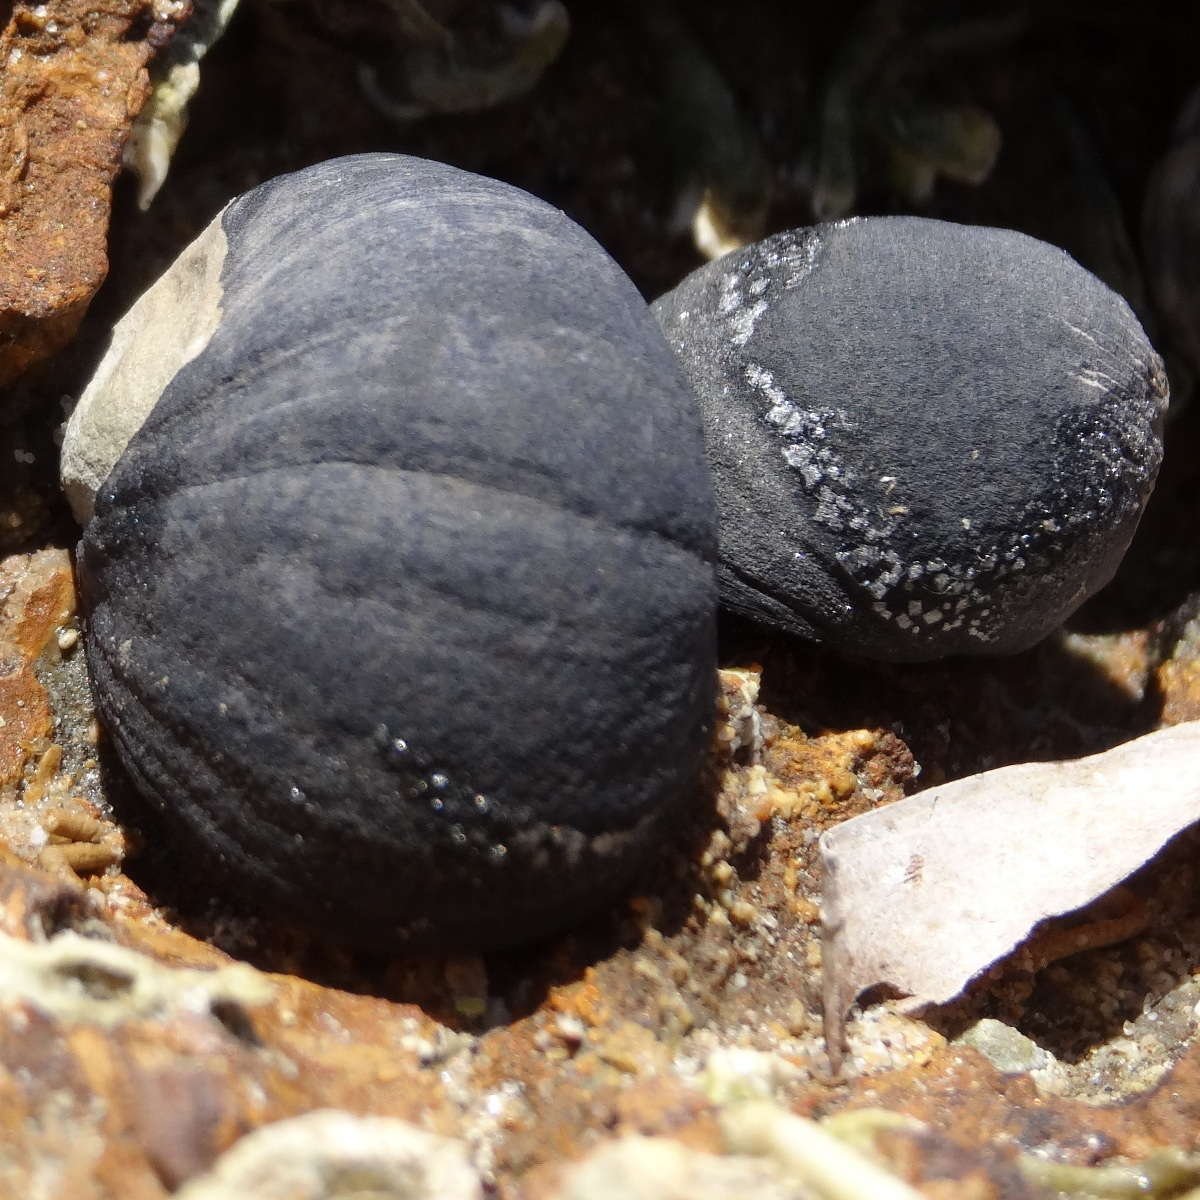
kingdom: Animalia
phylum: Mollusca
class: Gastropoda
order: Cycloneritida
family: Neritidae
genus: Nerita
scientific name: Nerita atramentosa
